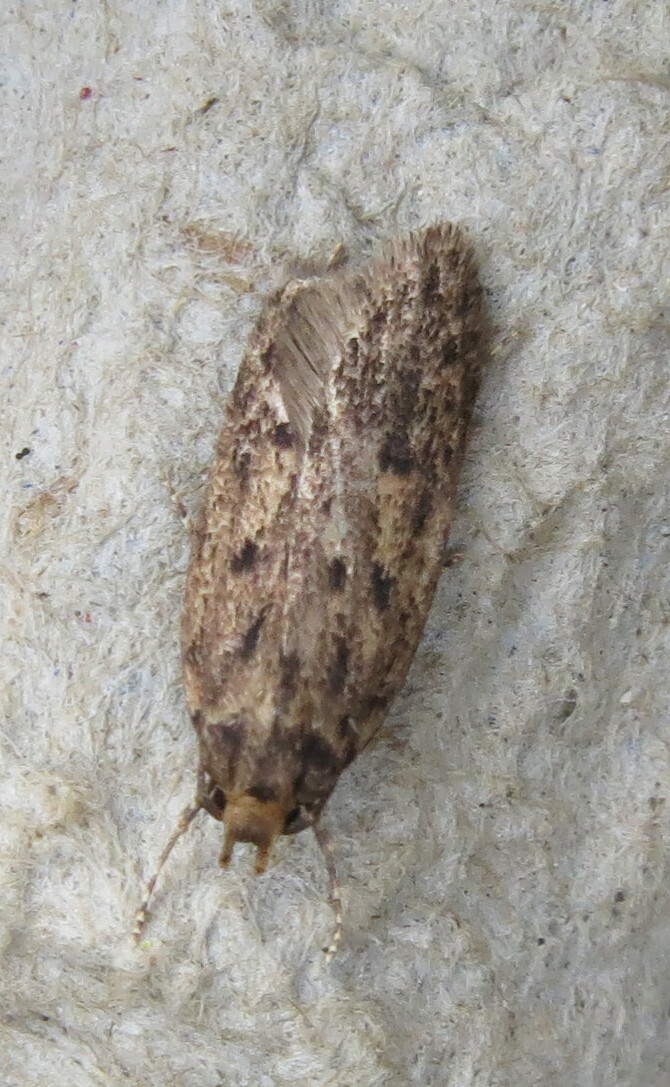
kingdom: Animalia
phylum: Arthropoda
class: Insecta
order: Lepidoptera
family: Oecophoridae
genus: Hofmannophila
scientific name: Hofmannophila pseudospretella
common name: Brown house moth
